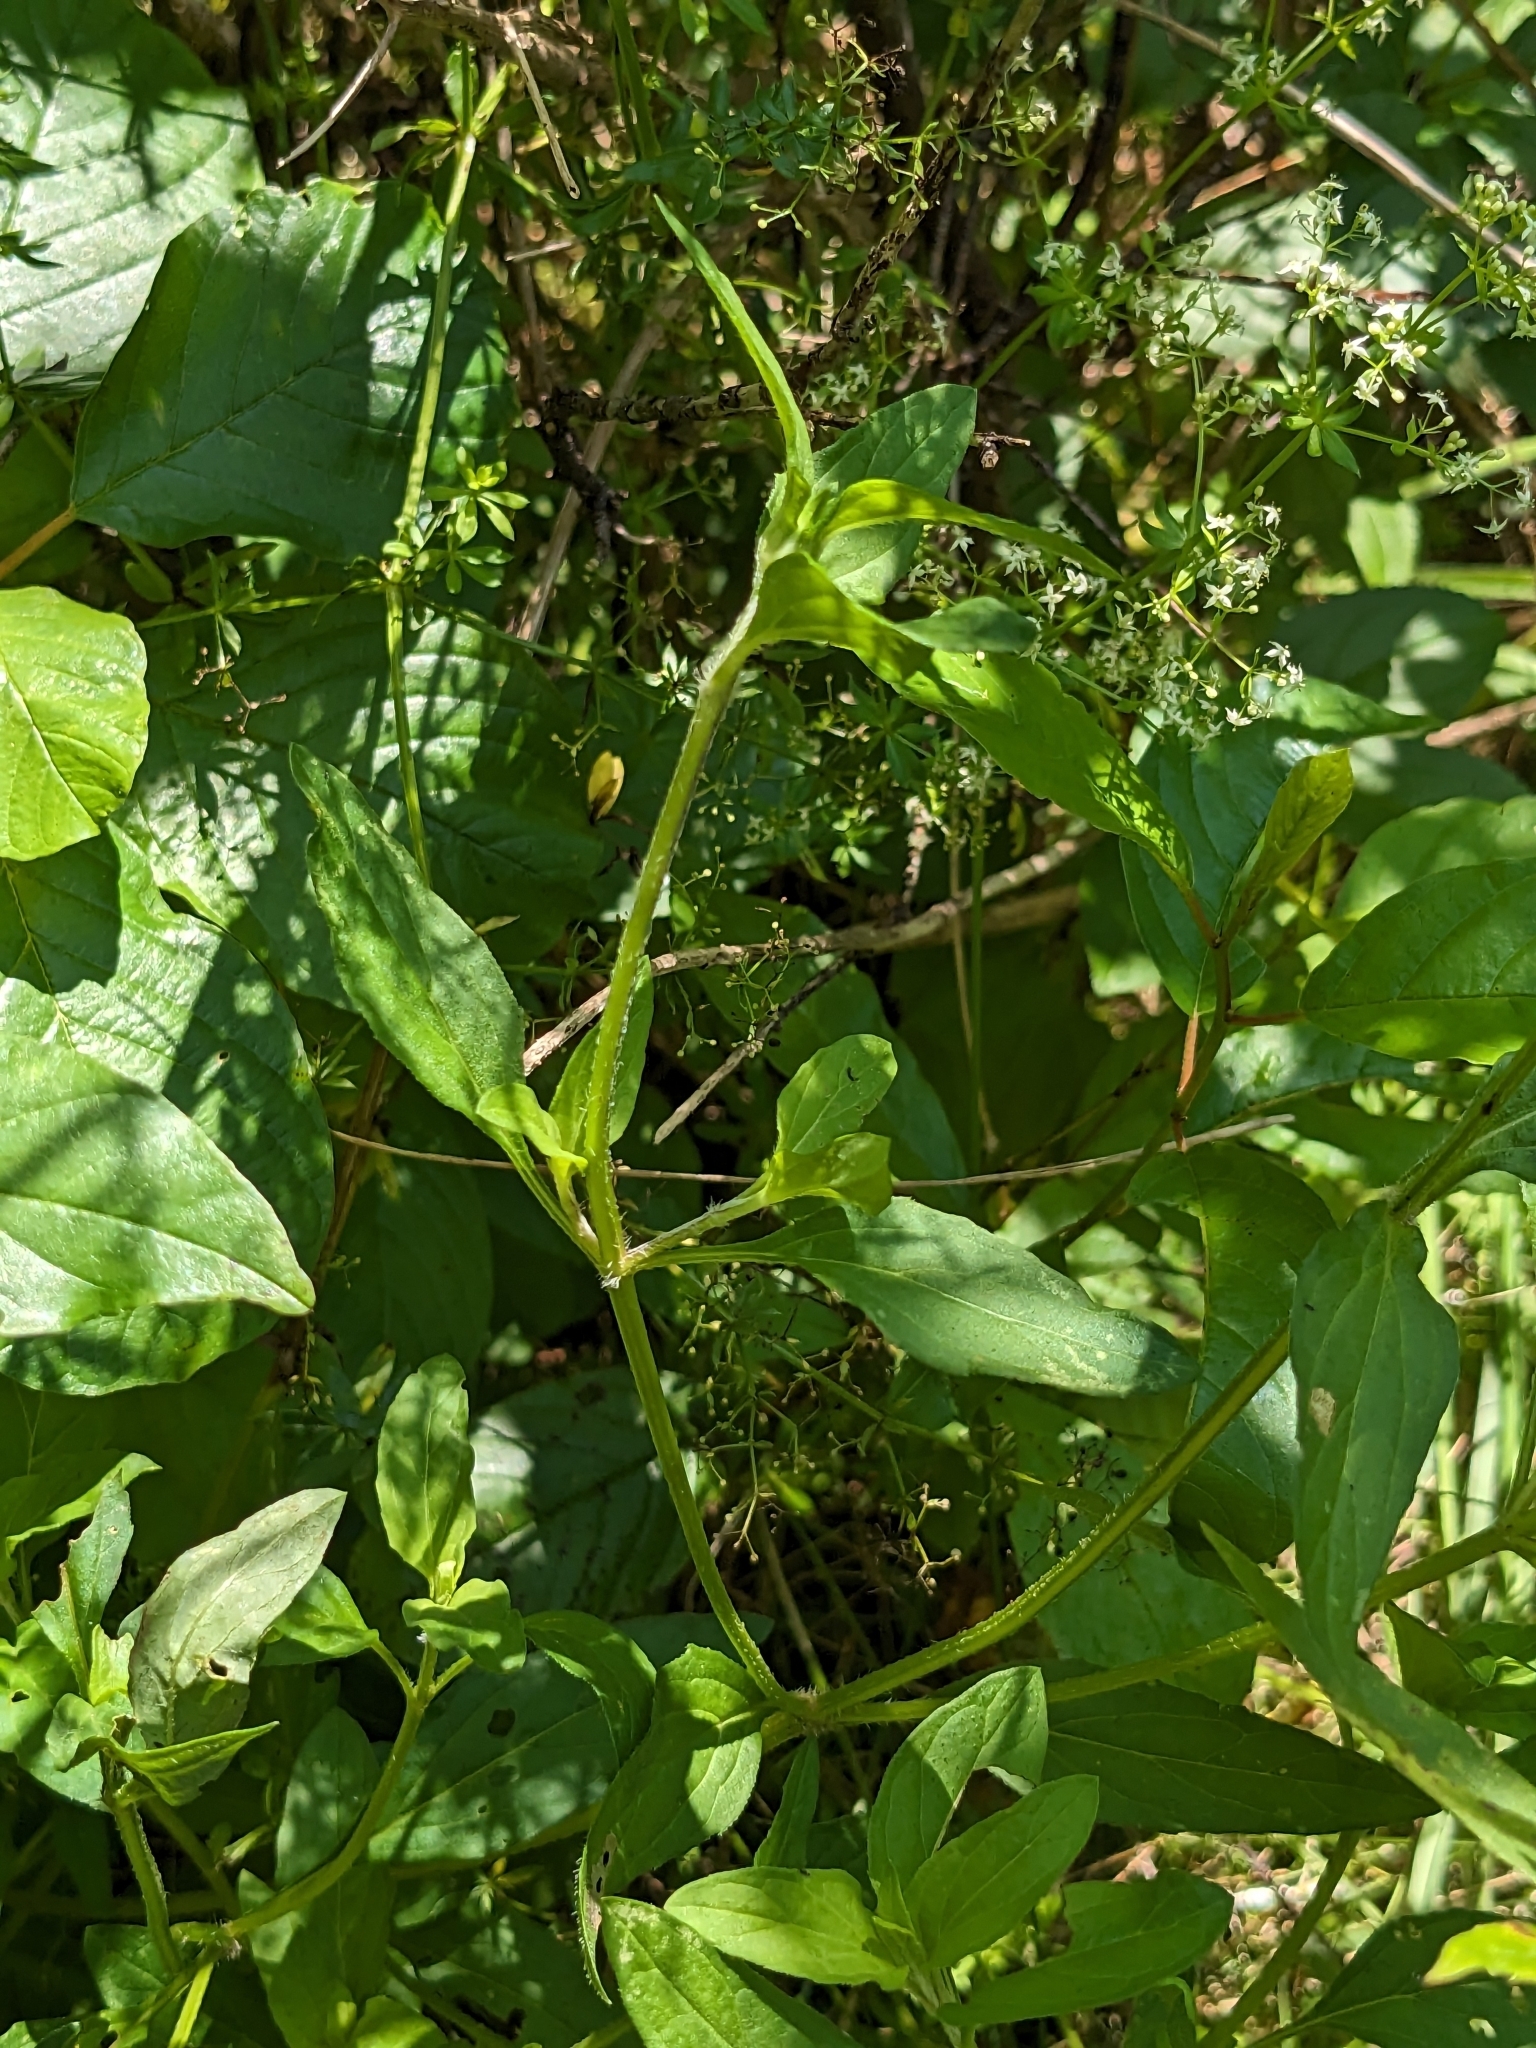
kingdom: Plantae
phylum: Tracheophyta
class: Magnoliopsida
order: Lamiales
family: Lamiaceae
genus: Prunella
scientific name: Prunella vulgaris
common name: Heal-all
